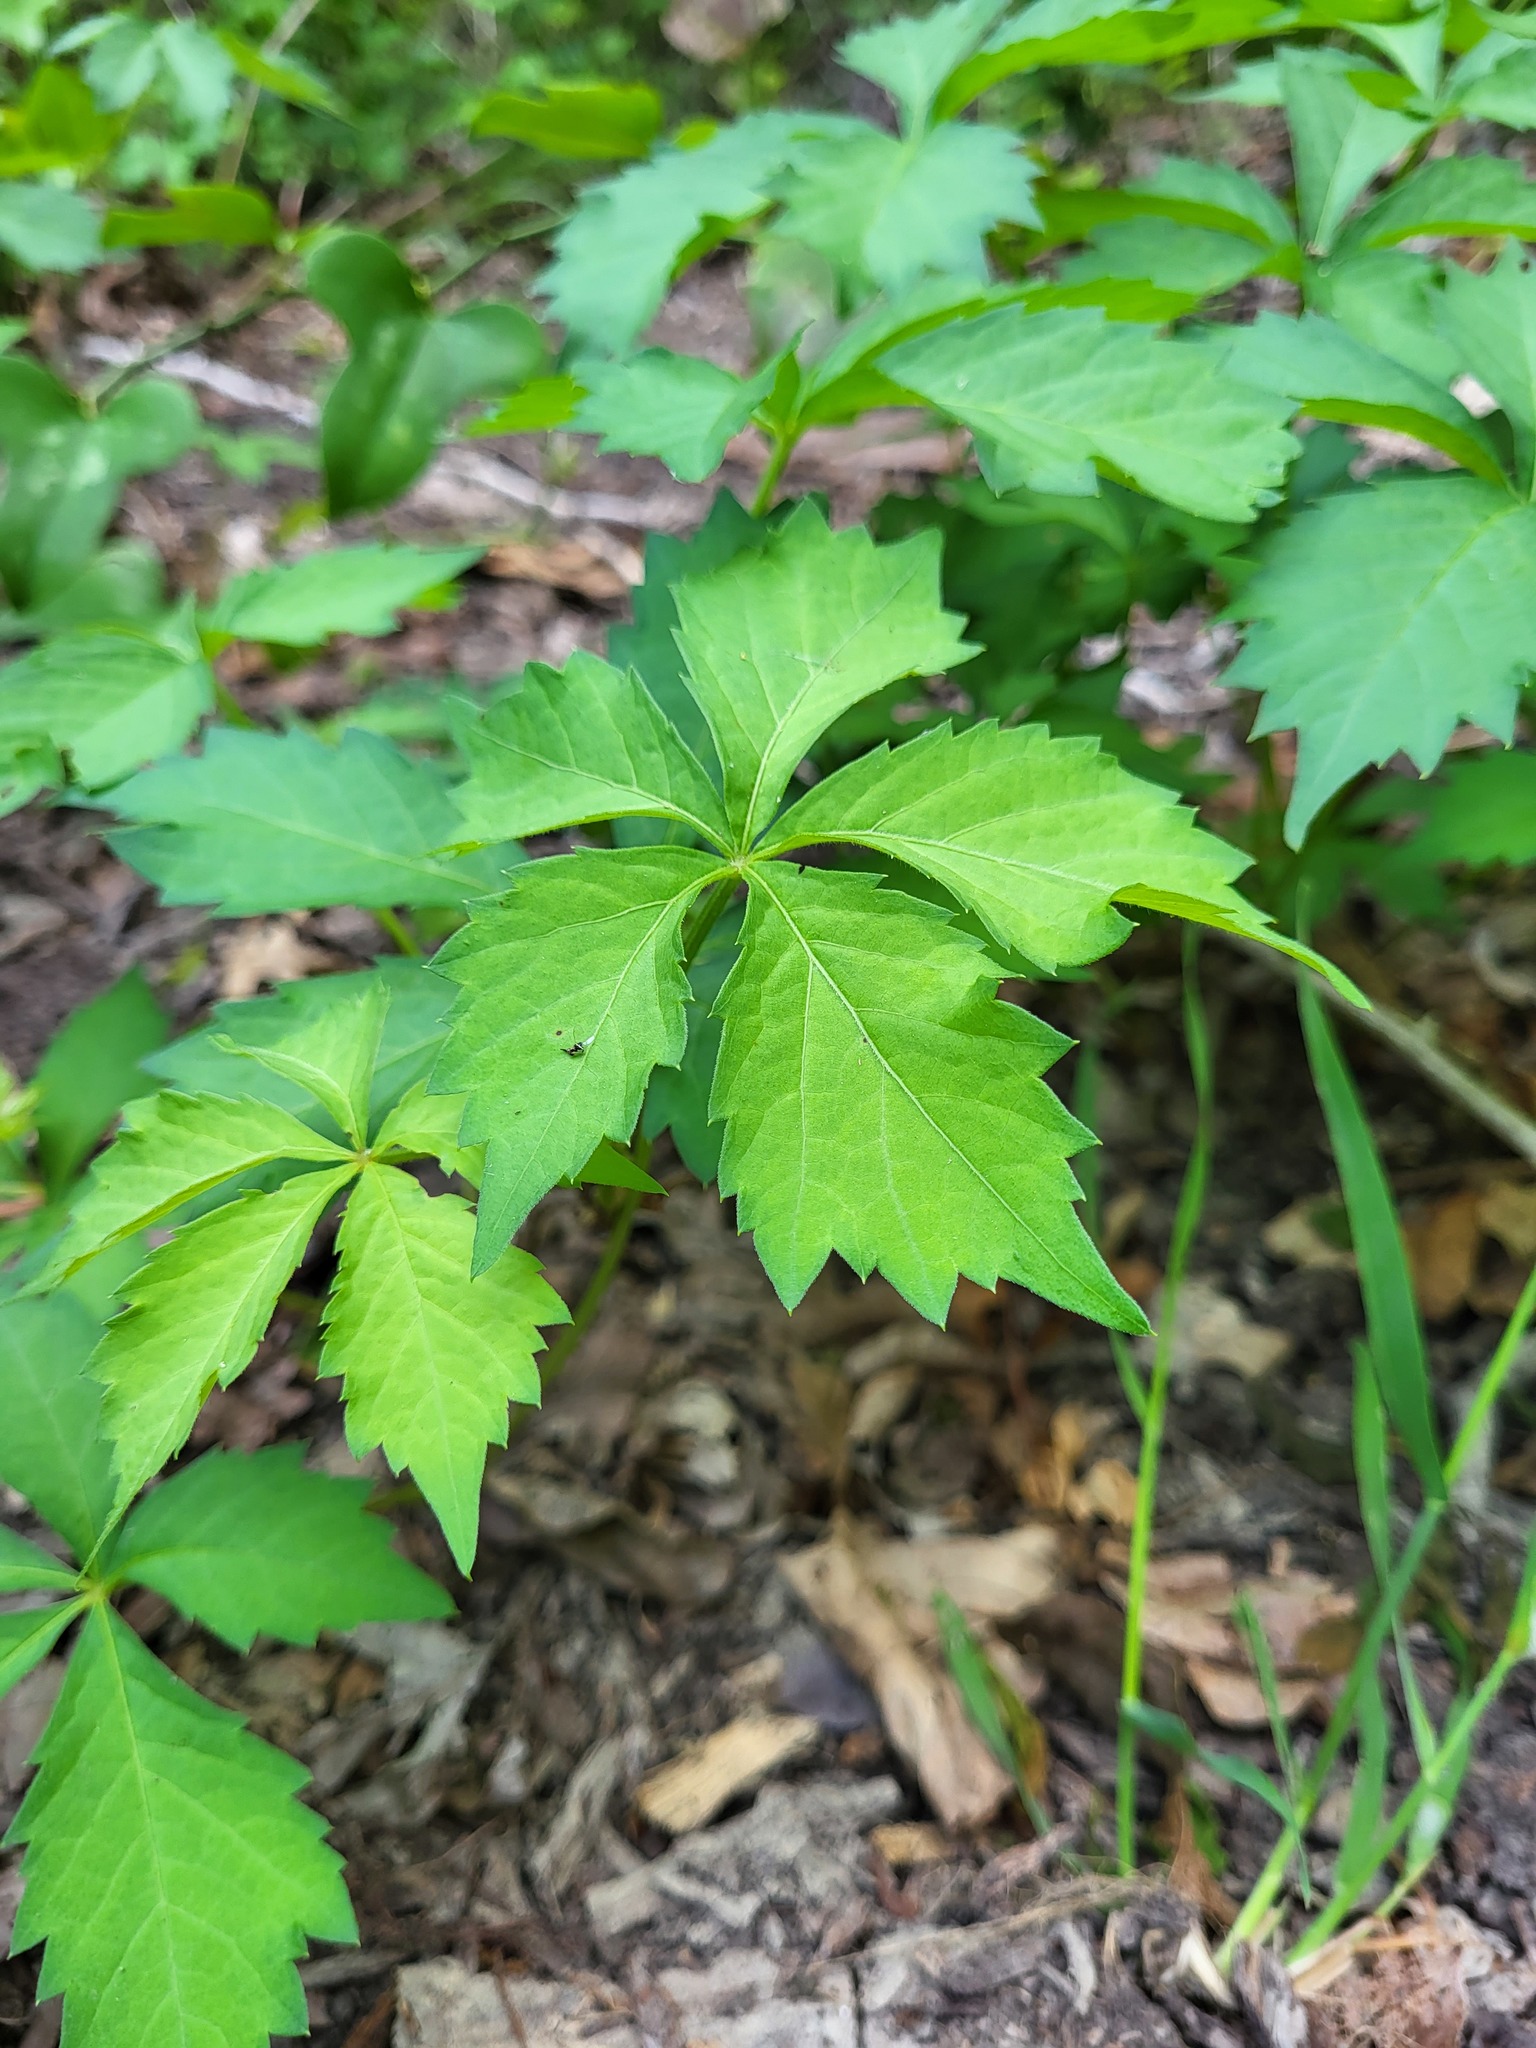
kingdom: Plantae
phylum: Tracheophyta
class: Magnoliopsida
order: Vitales
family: Vitaceae
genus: Parthenocissus
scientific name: Parthenocissus quinquefolia
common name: Virginia-creeper
